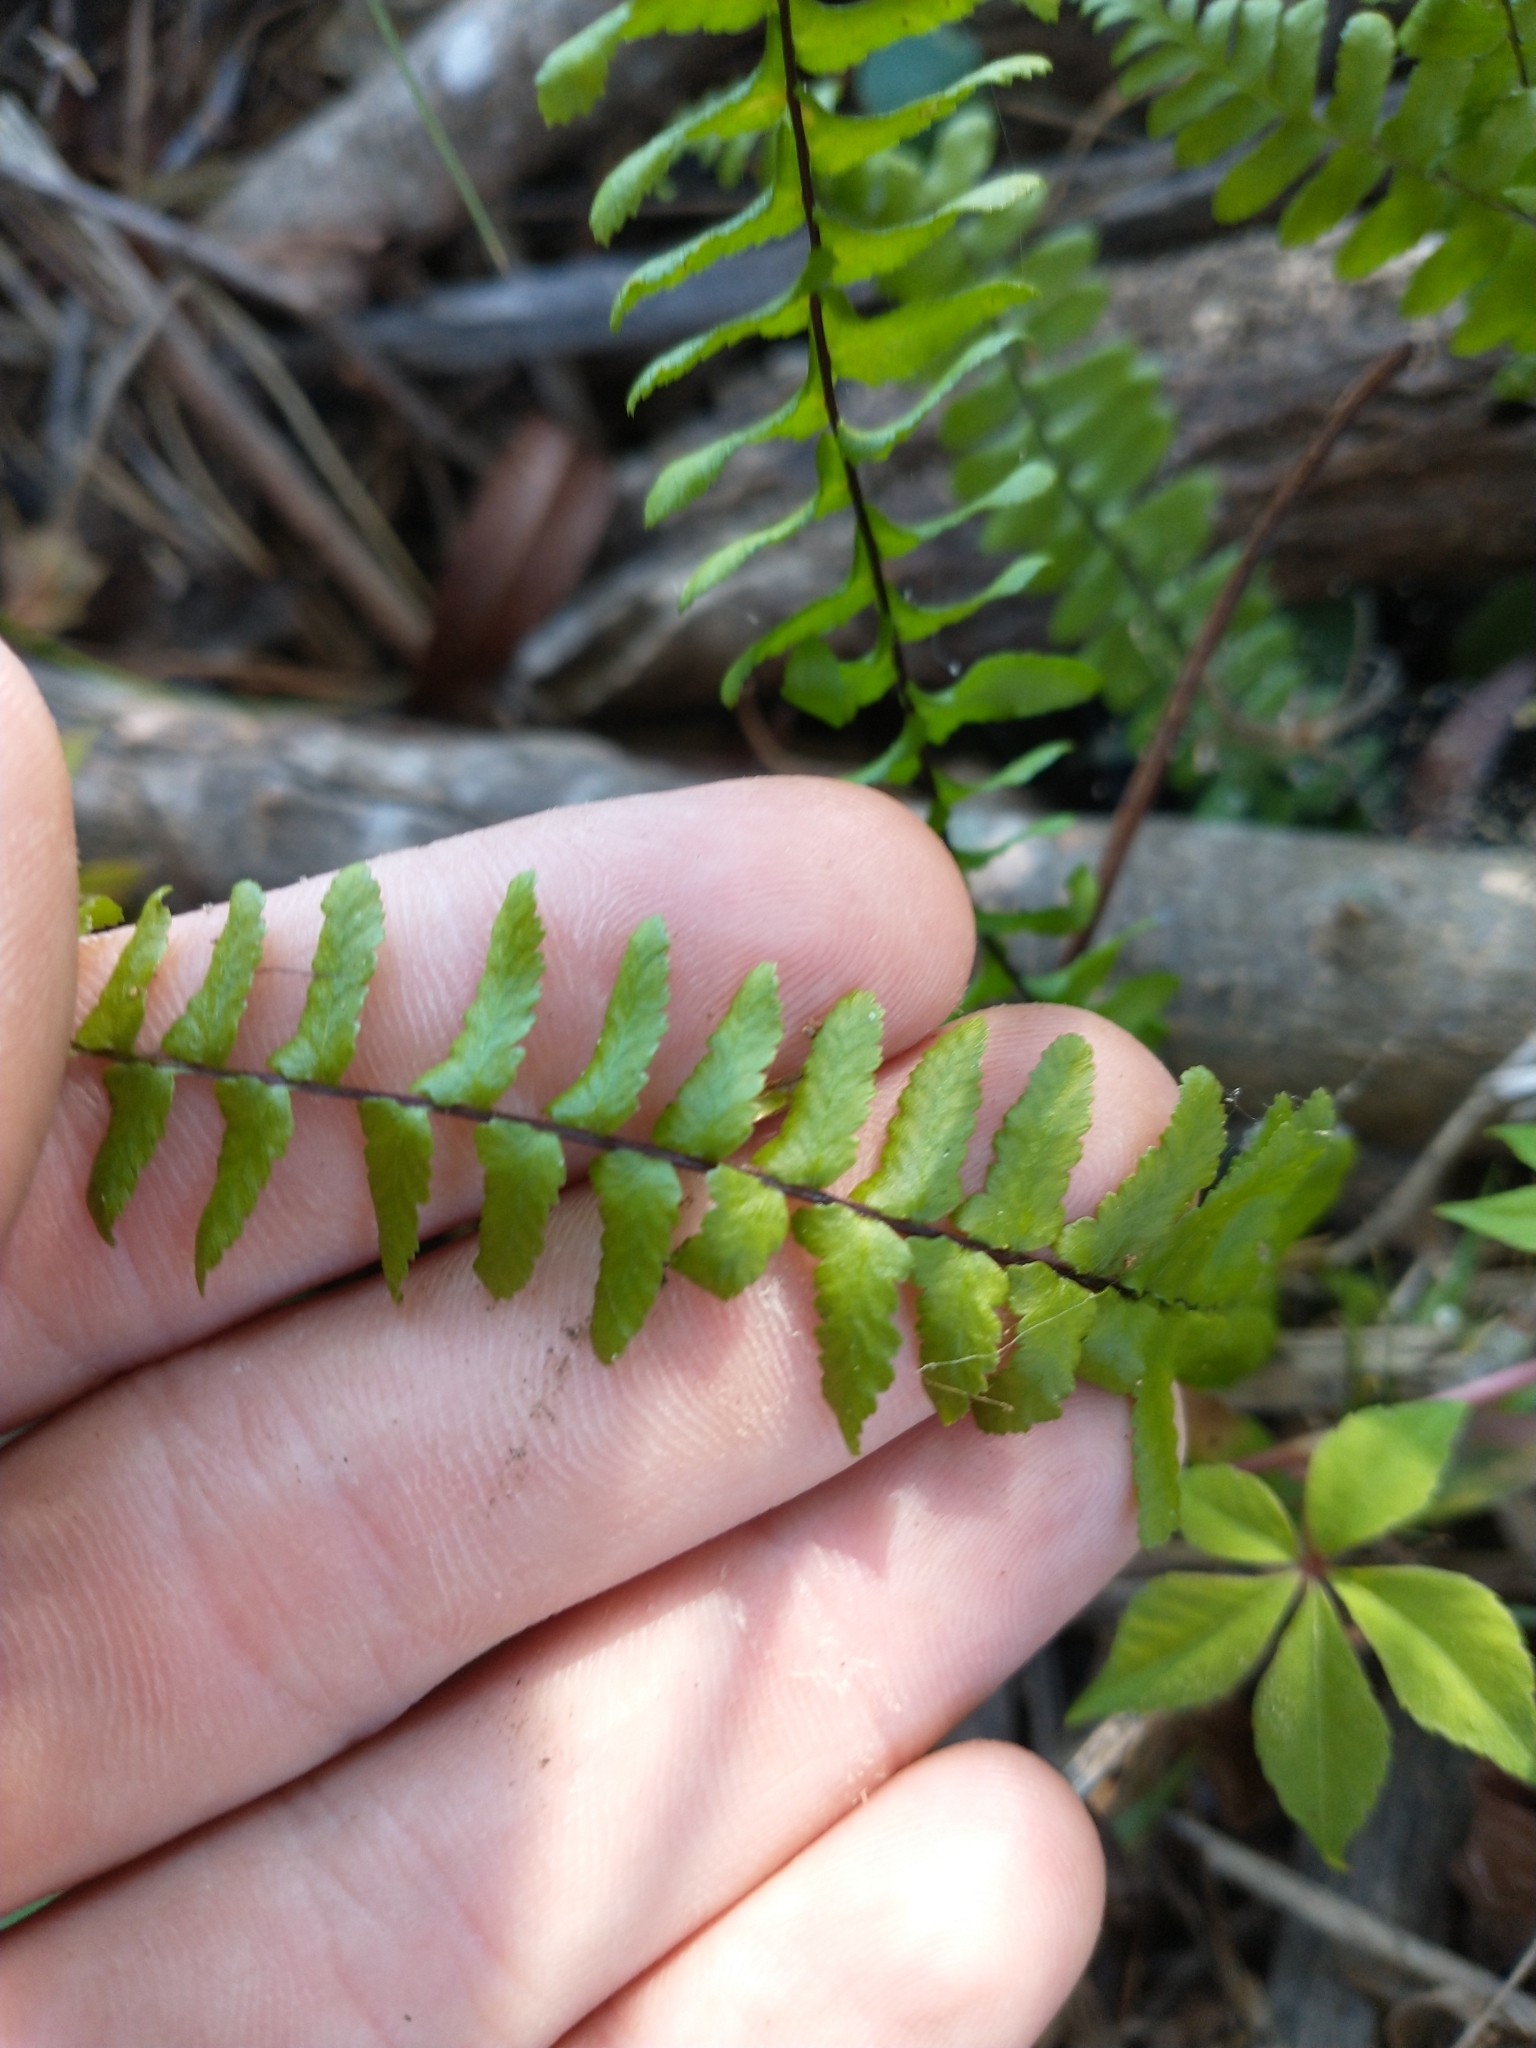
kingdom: Plantae
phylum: Tracheophyta
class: Polypodiopsida
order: Polypodiales
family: Aspleniaceae
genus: Asplenium
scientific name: Asplenium platyneuron
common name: Ebony spleenwort
